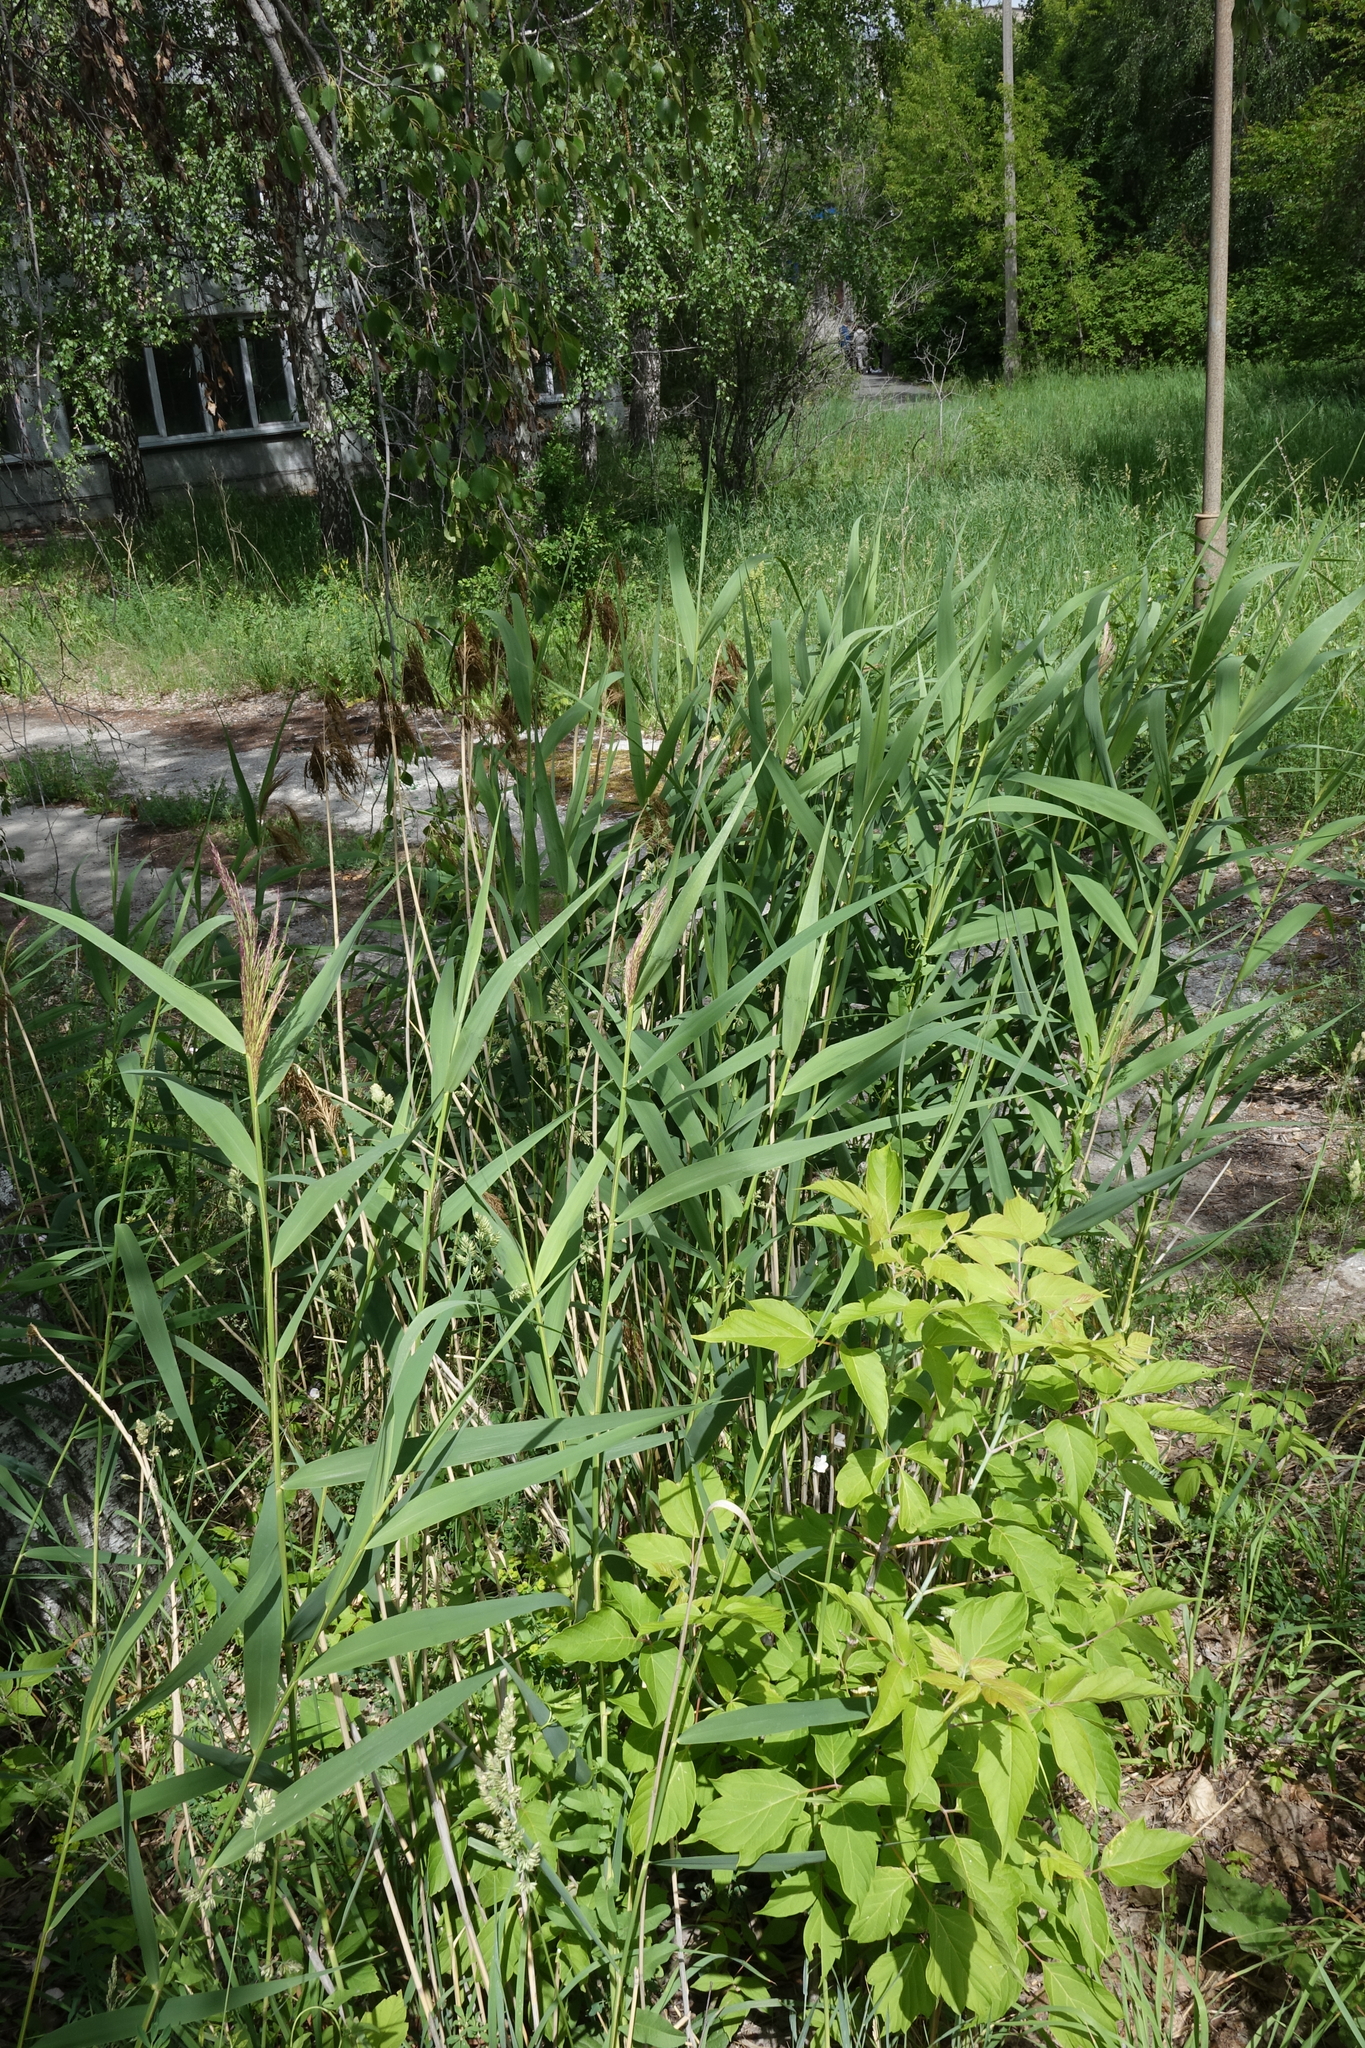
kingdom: Plantae
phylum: Tracheophyta
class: Liliopsida
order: Poales
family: Poaceae
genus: Phragmites
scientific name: Phragmites australis
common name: Common reed
